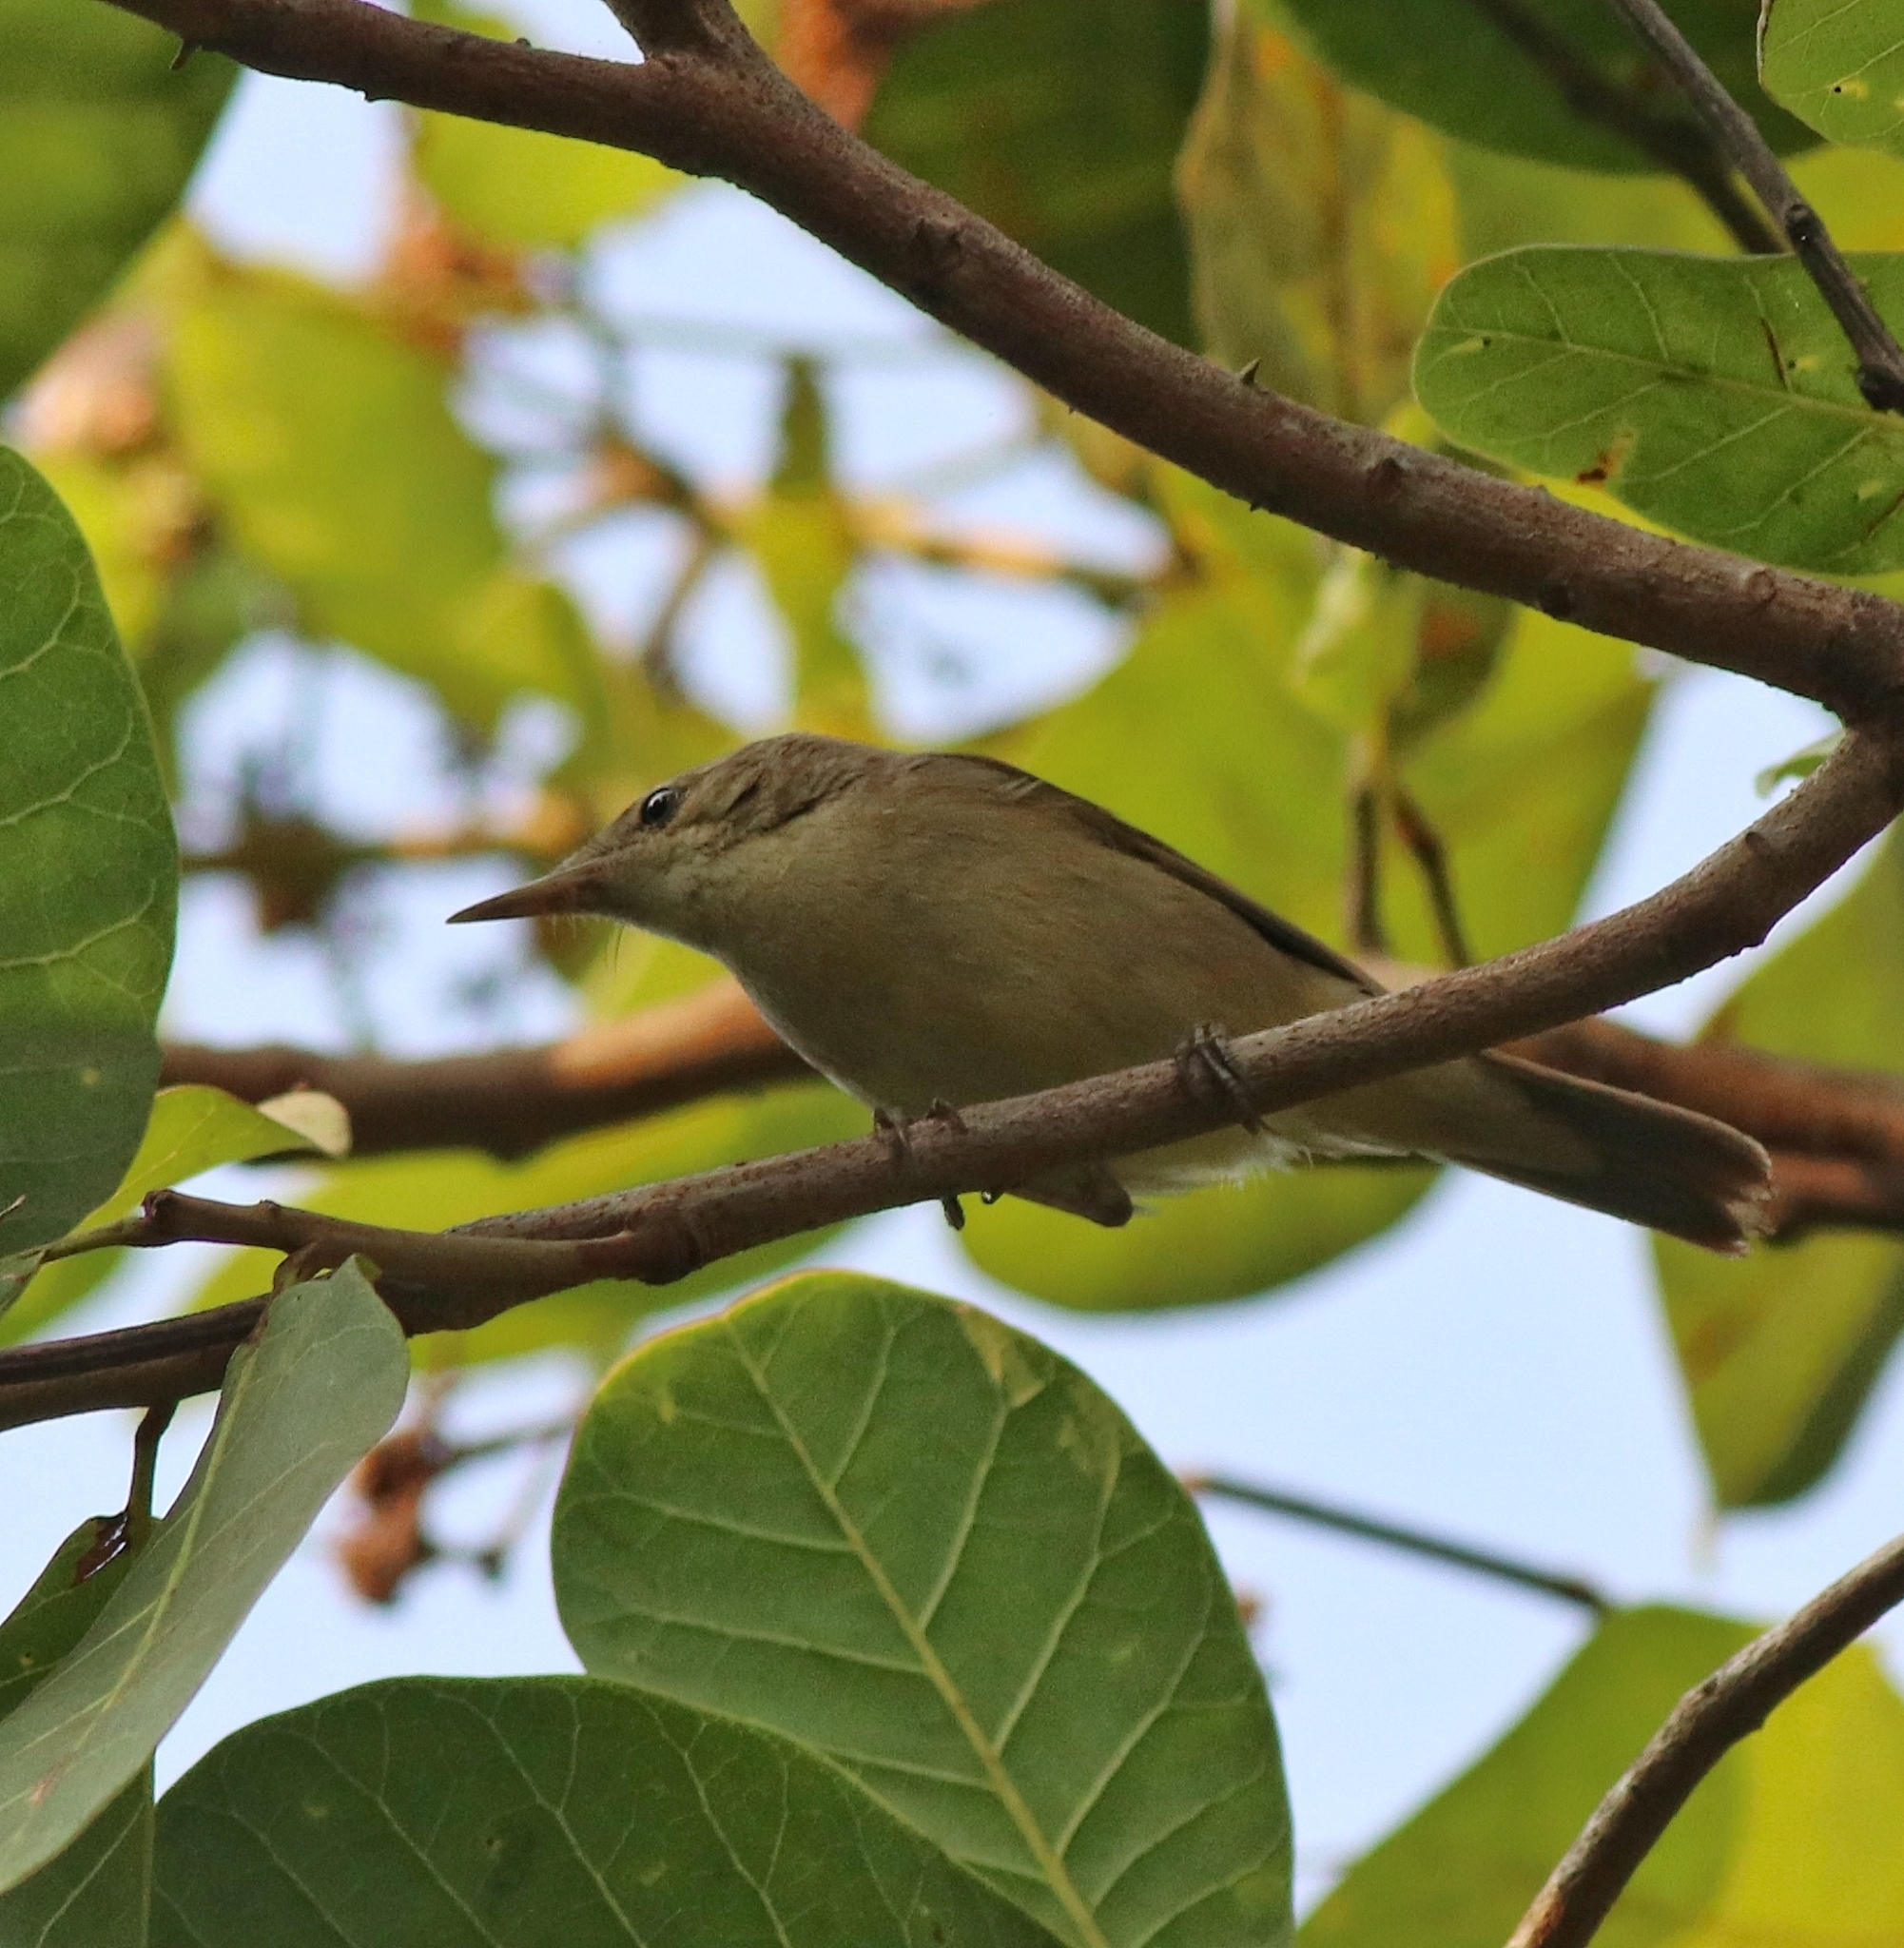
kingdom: Animalia
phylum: Chordata
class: Aves
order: Passeriformes
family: Acrocephalidae
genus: Acrocephalus
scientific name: Acrocephalus dumetorum
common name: Blyth's reed warbler
